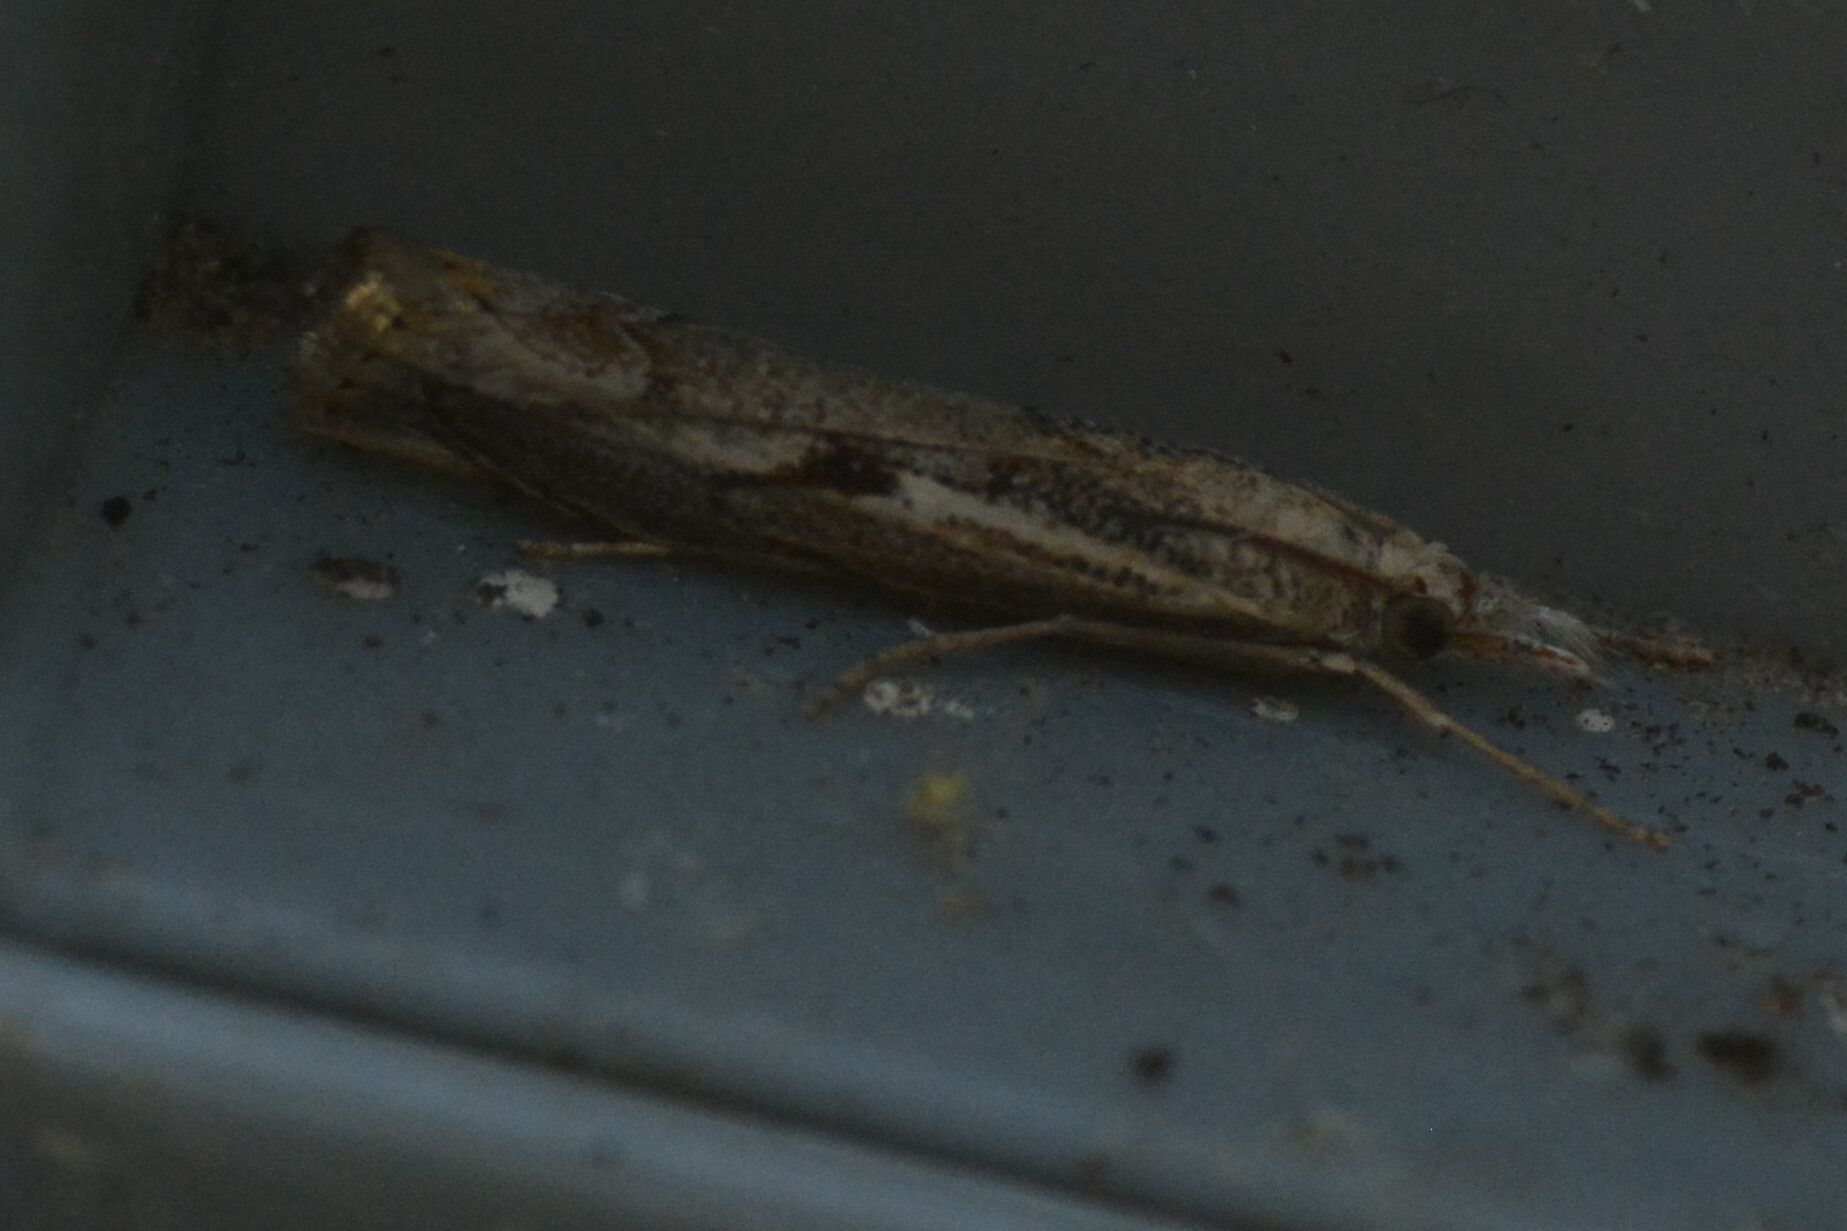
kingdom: Animalia
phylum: Arthropoda
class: Insecta
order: Lepidoptera
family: Crambidae
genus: Agriphila
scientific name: Agriphila geniculea
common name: Elbow-stripe grass-veneer
